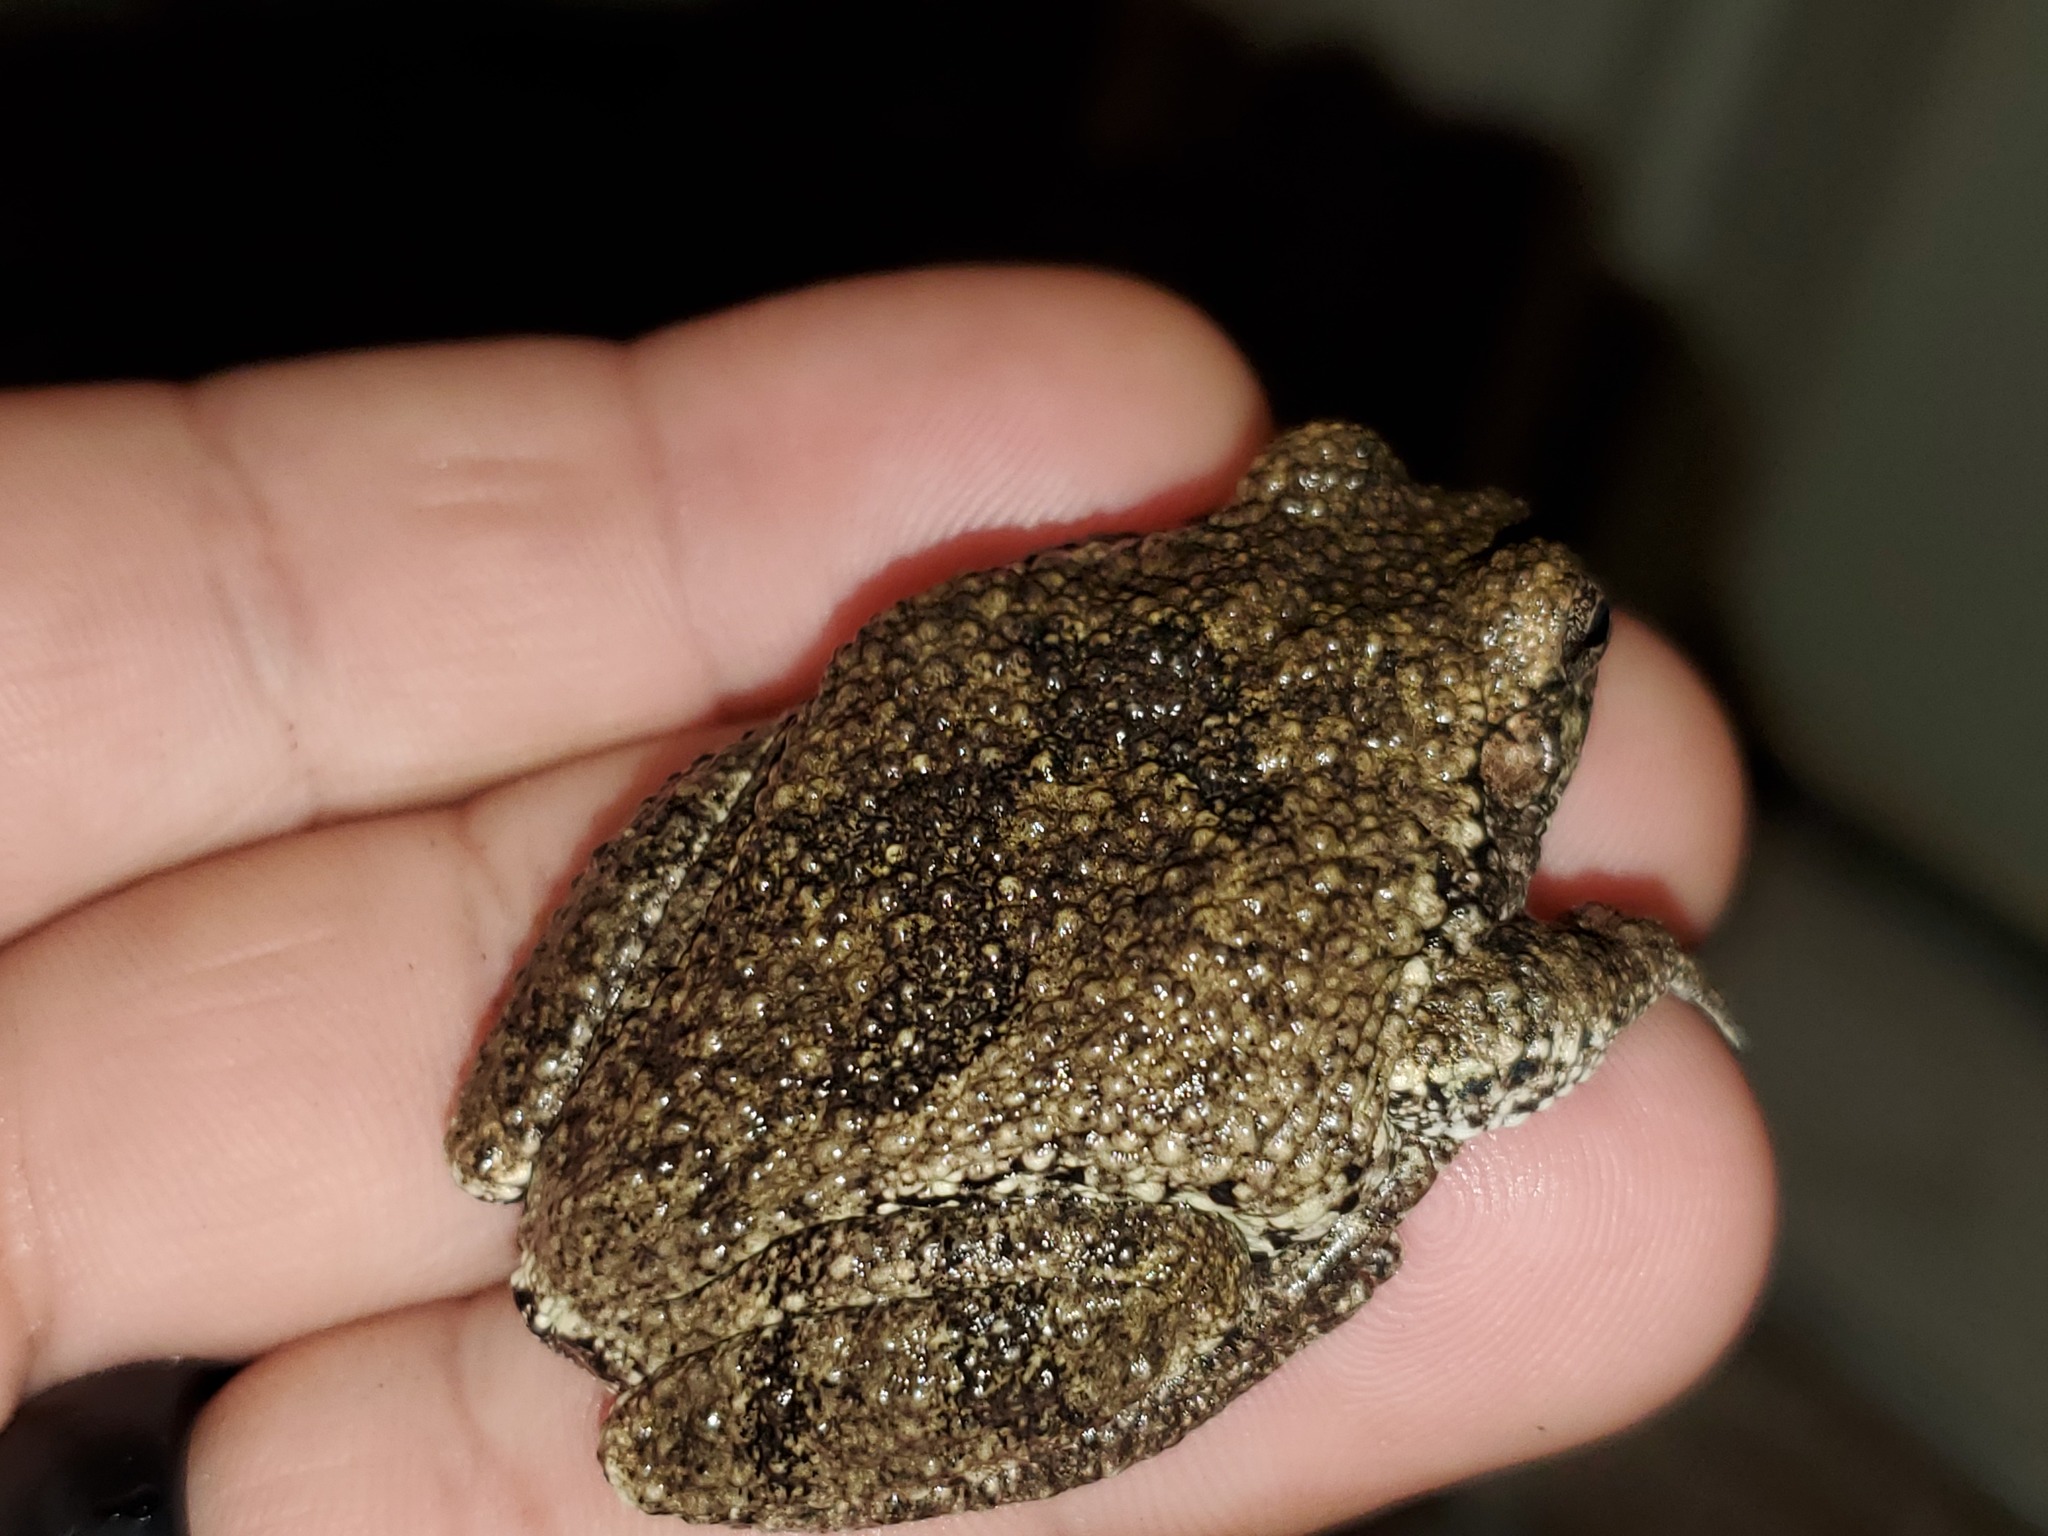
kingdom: Animalia
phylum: Chordata
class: Amphibia
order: Anura
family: Hylidae
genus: Dryophytes
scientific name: Dryophytes chrysoscelis
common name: Cope's gray treefrog
